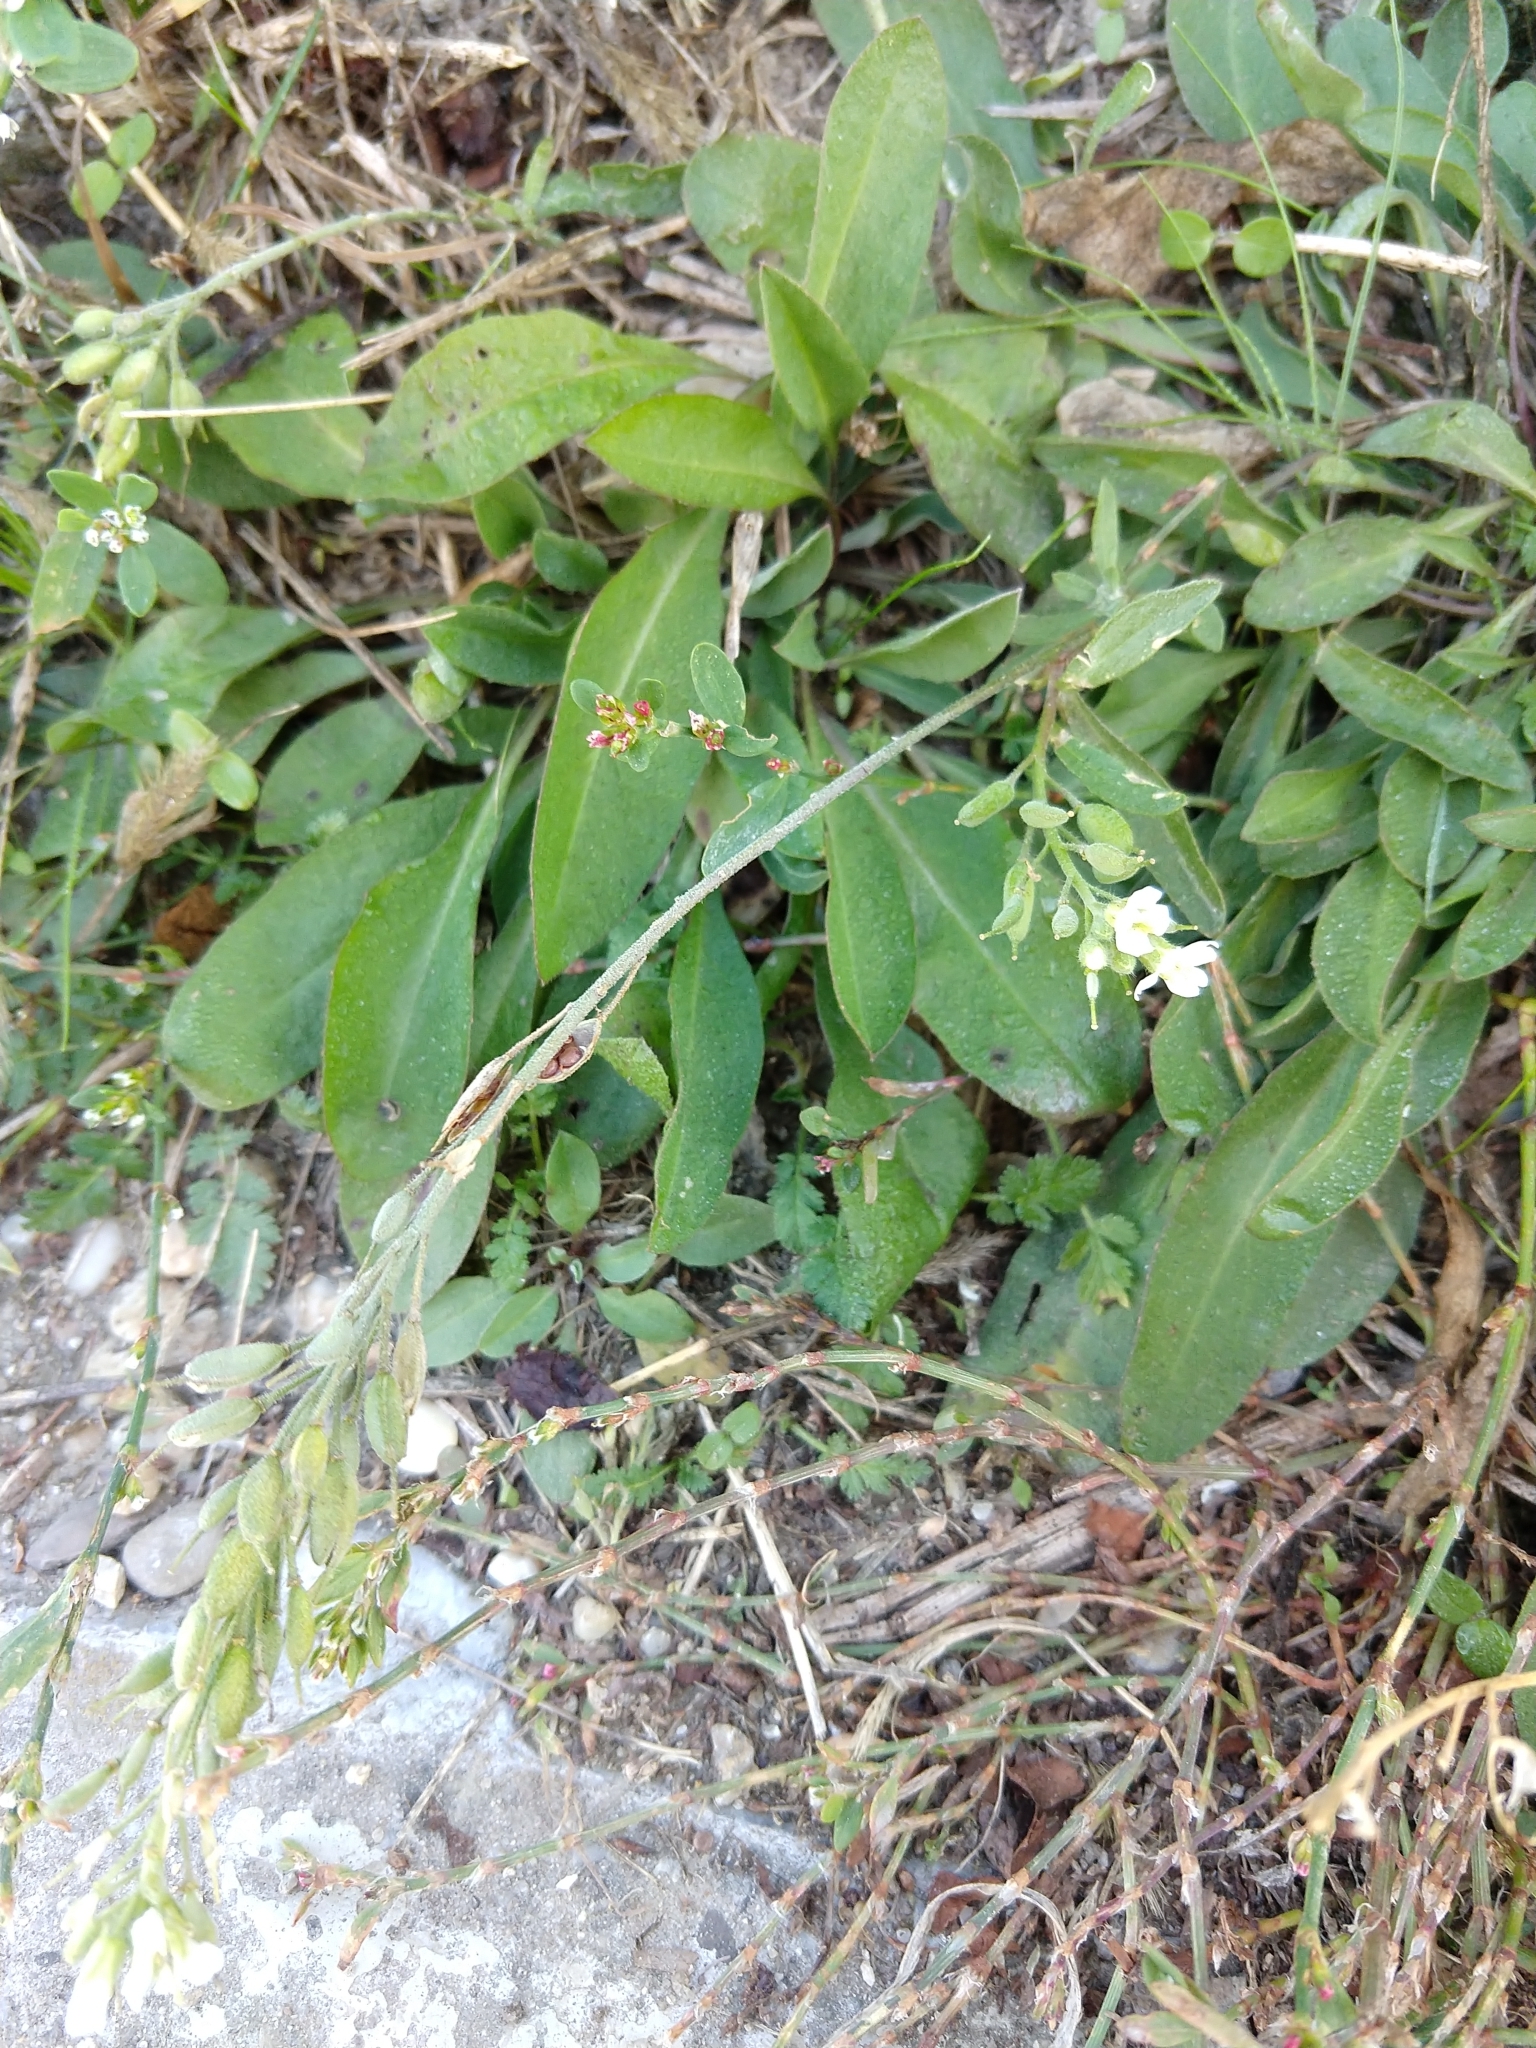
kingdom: Plantae
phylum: Tracheophyta
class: Magnoliopsida
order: Brassicales
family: Brassicaceae
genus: Berteroa
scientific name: Berteroa incana
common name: Hoary alison
